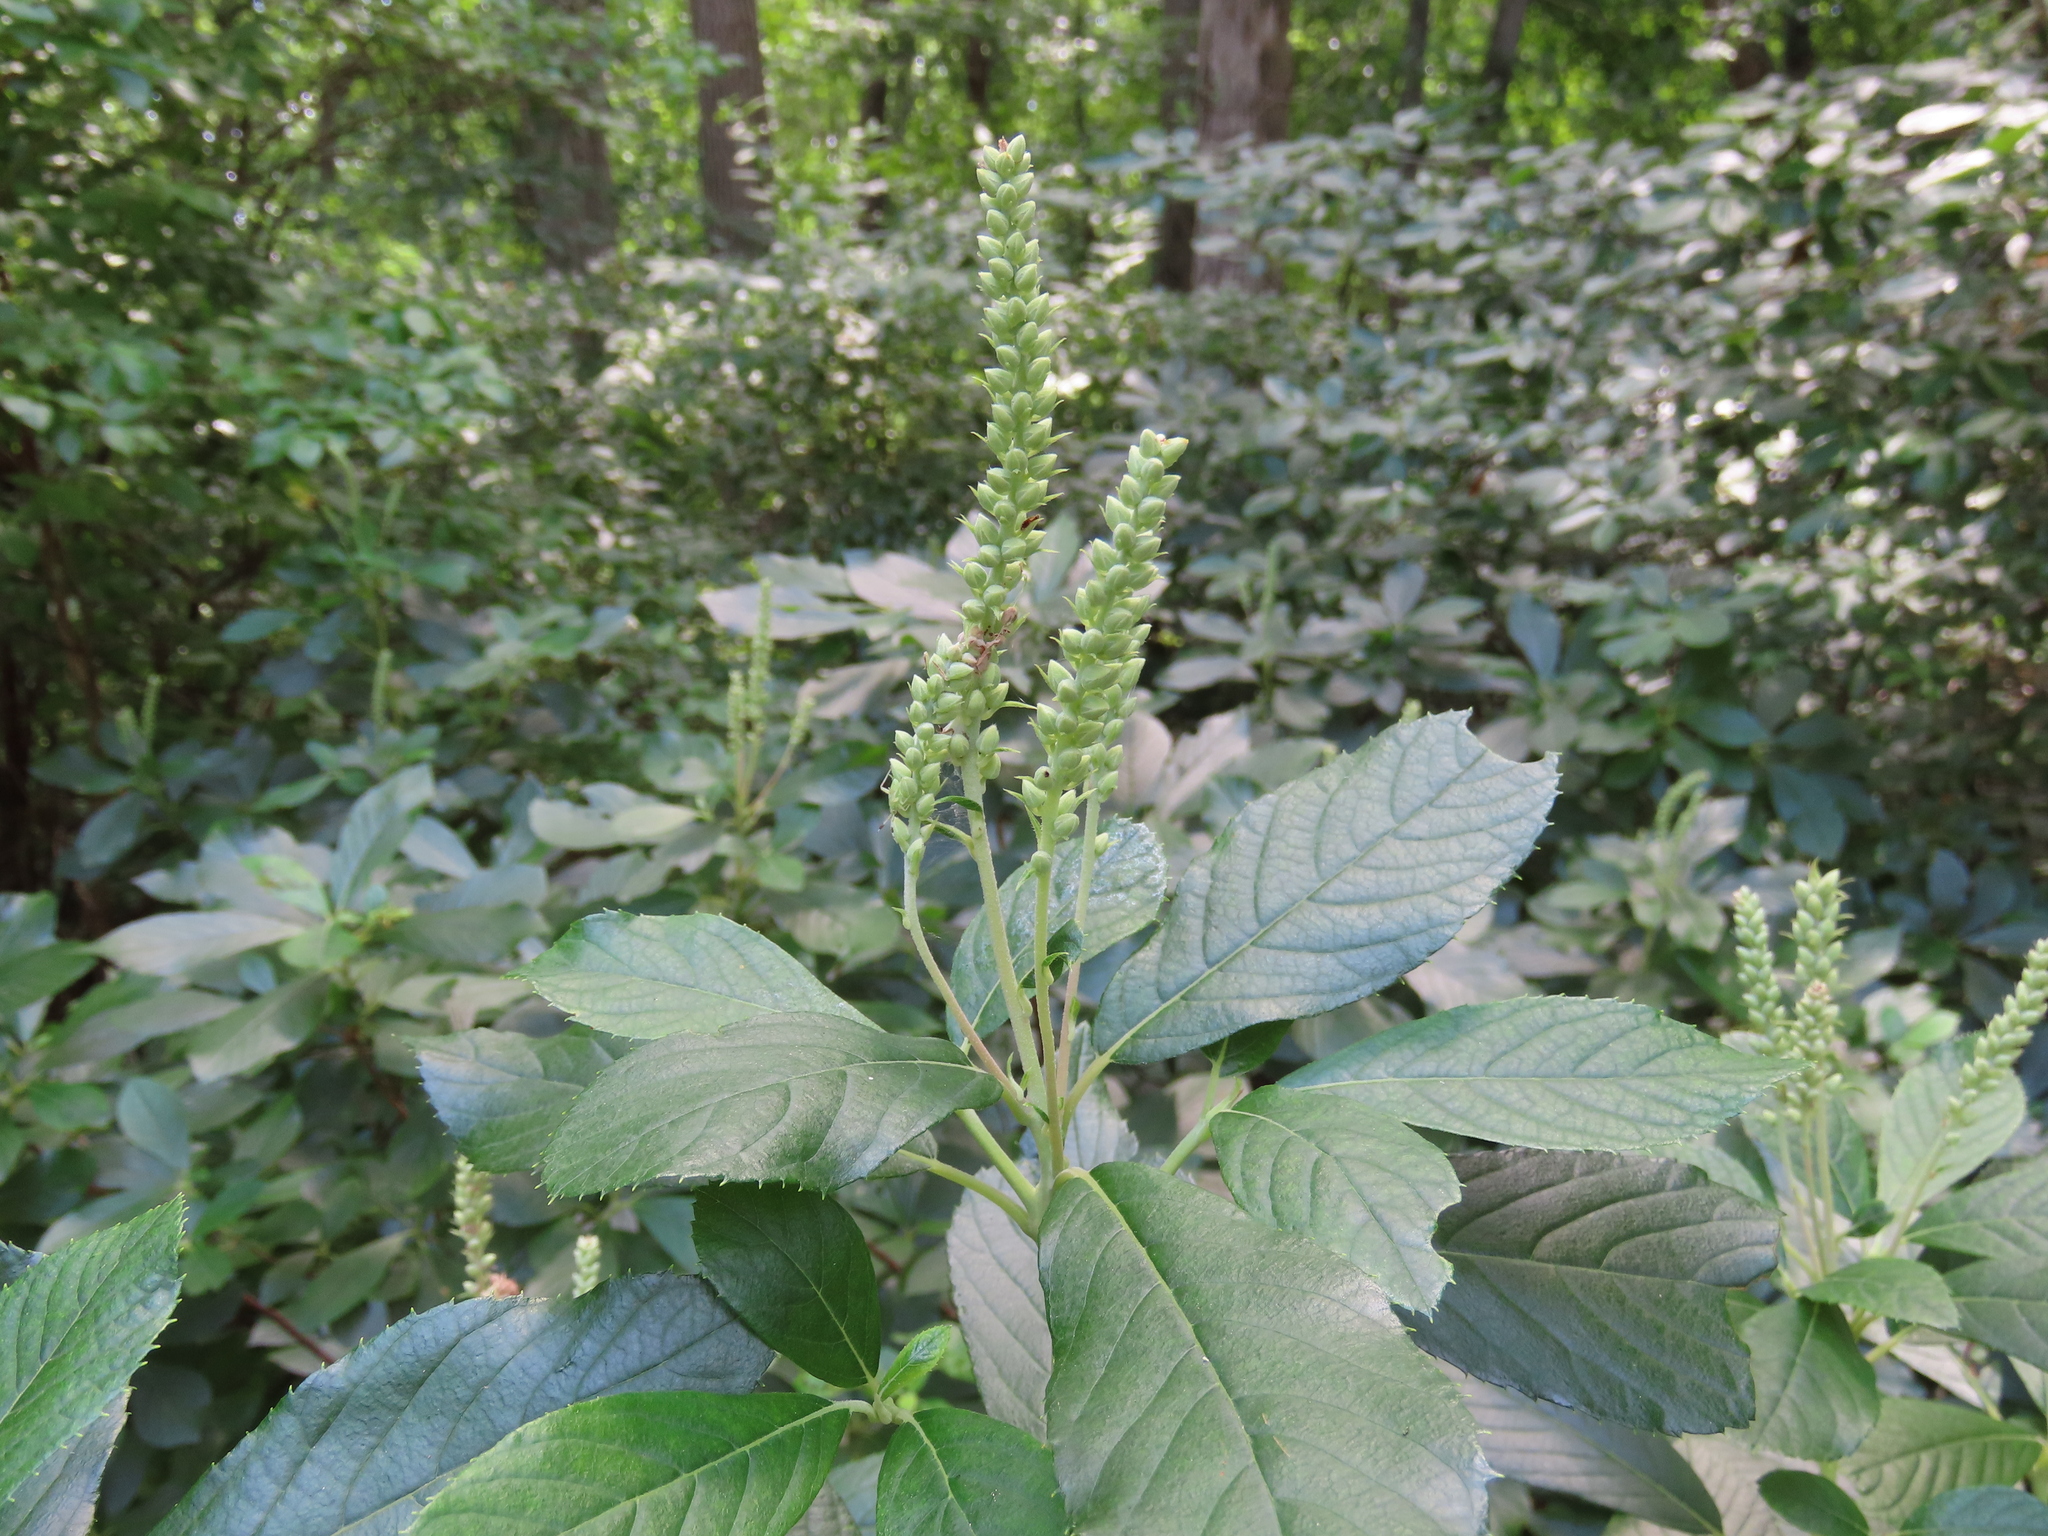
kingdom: Plantae
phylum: Tracheophyta
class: Magnoliopsida
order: Ericales
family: Clethraceae
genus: Clethra
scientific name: Clethra alnifolia
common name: Sweet pepperbush
